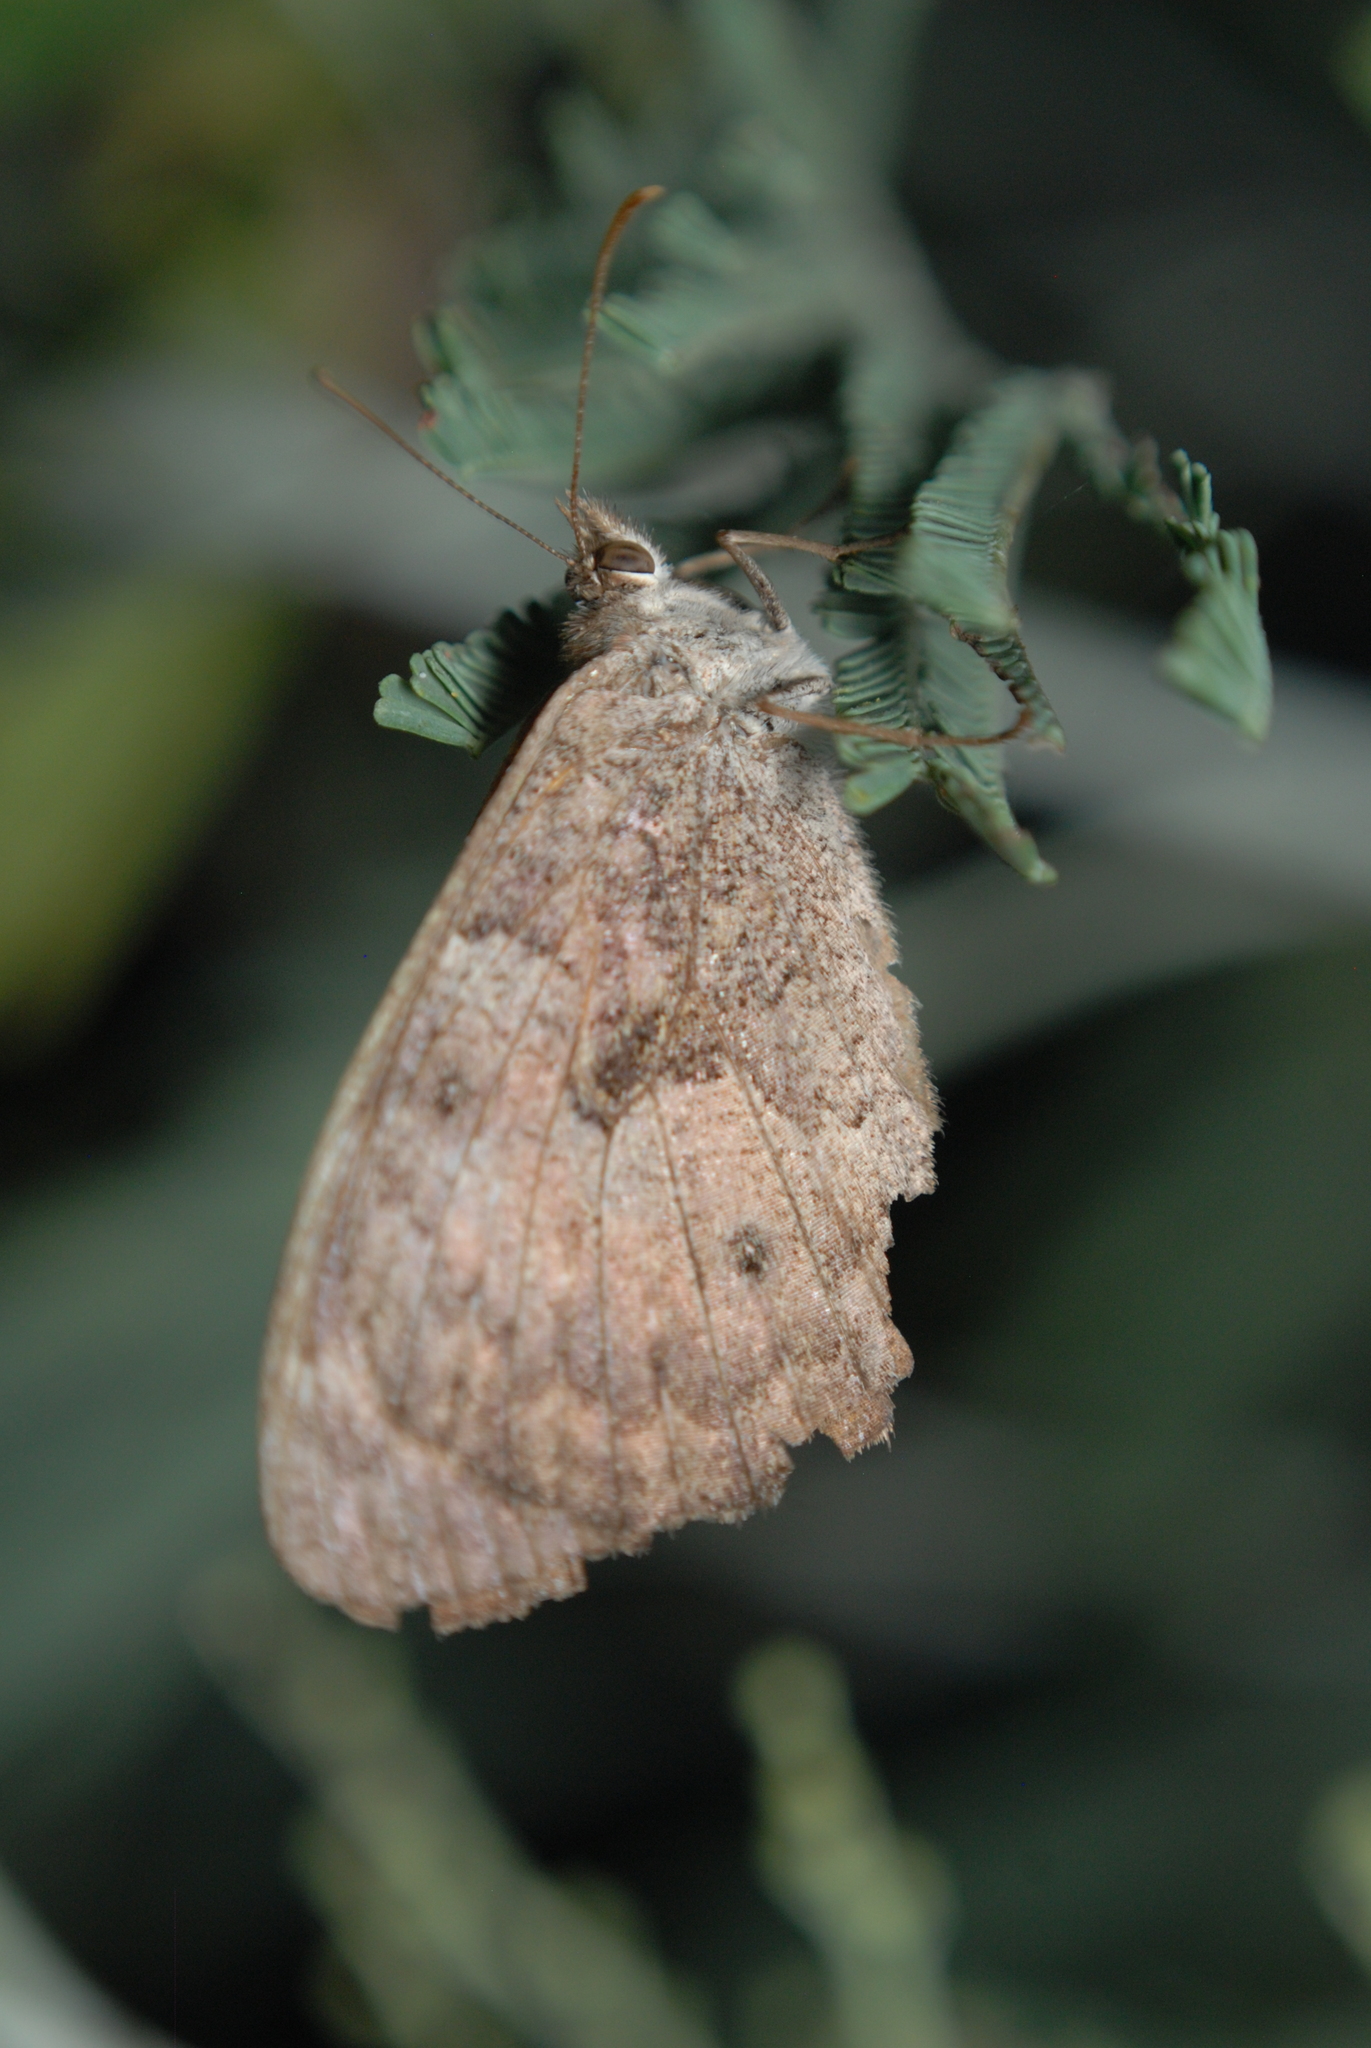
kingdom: Animalia
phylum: Arthropoda
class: Insecta
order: Lepidoptera
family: Nymphalidae
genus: Geitoneura
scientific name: Geitoneura klugii
